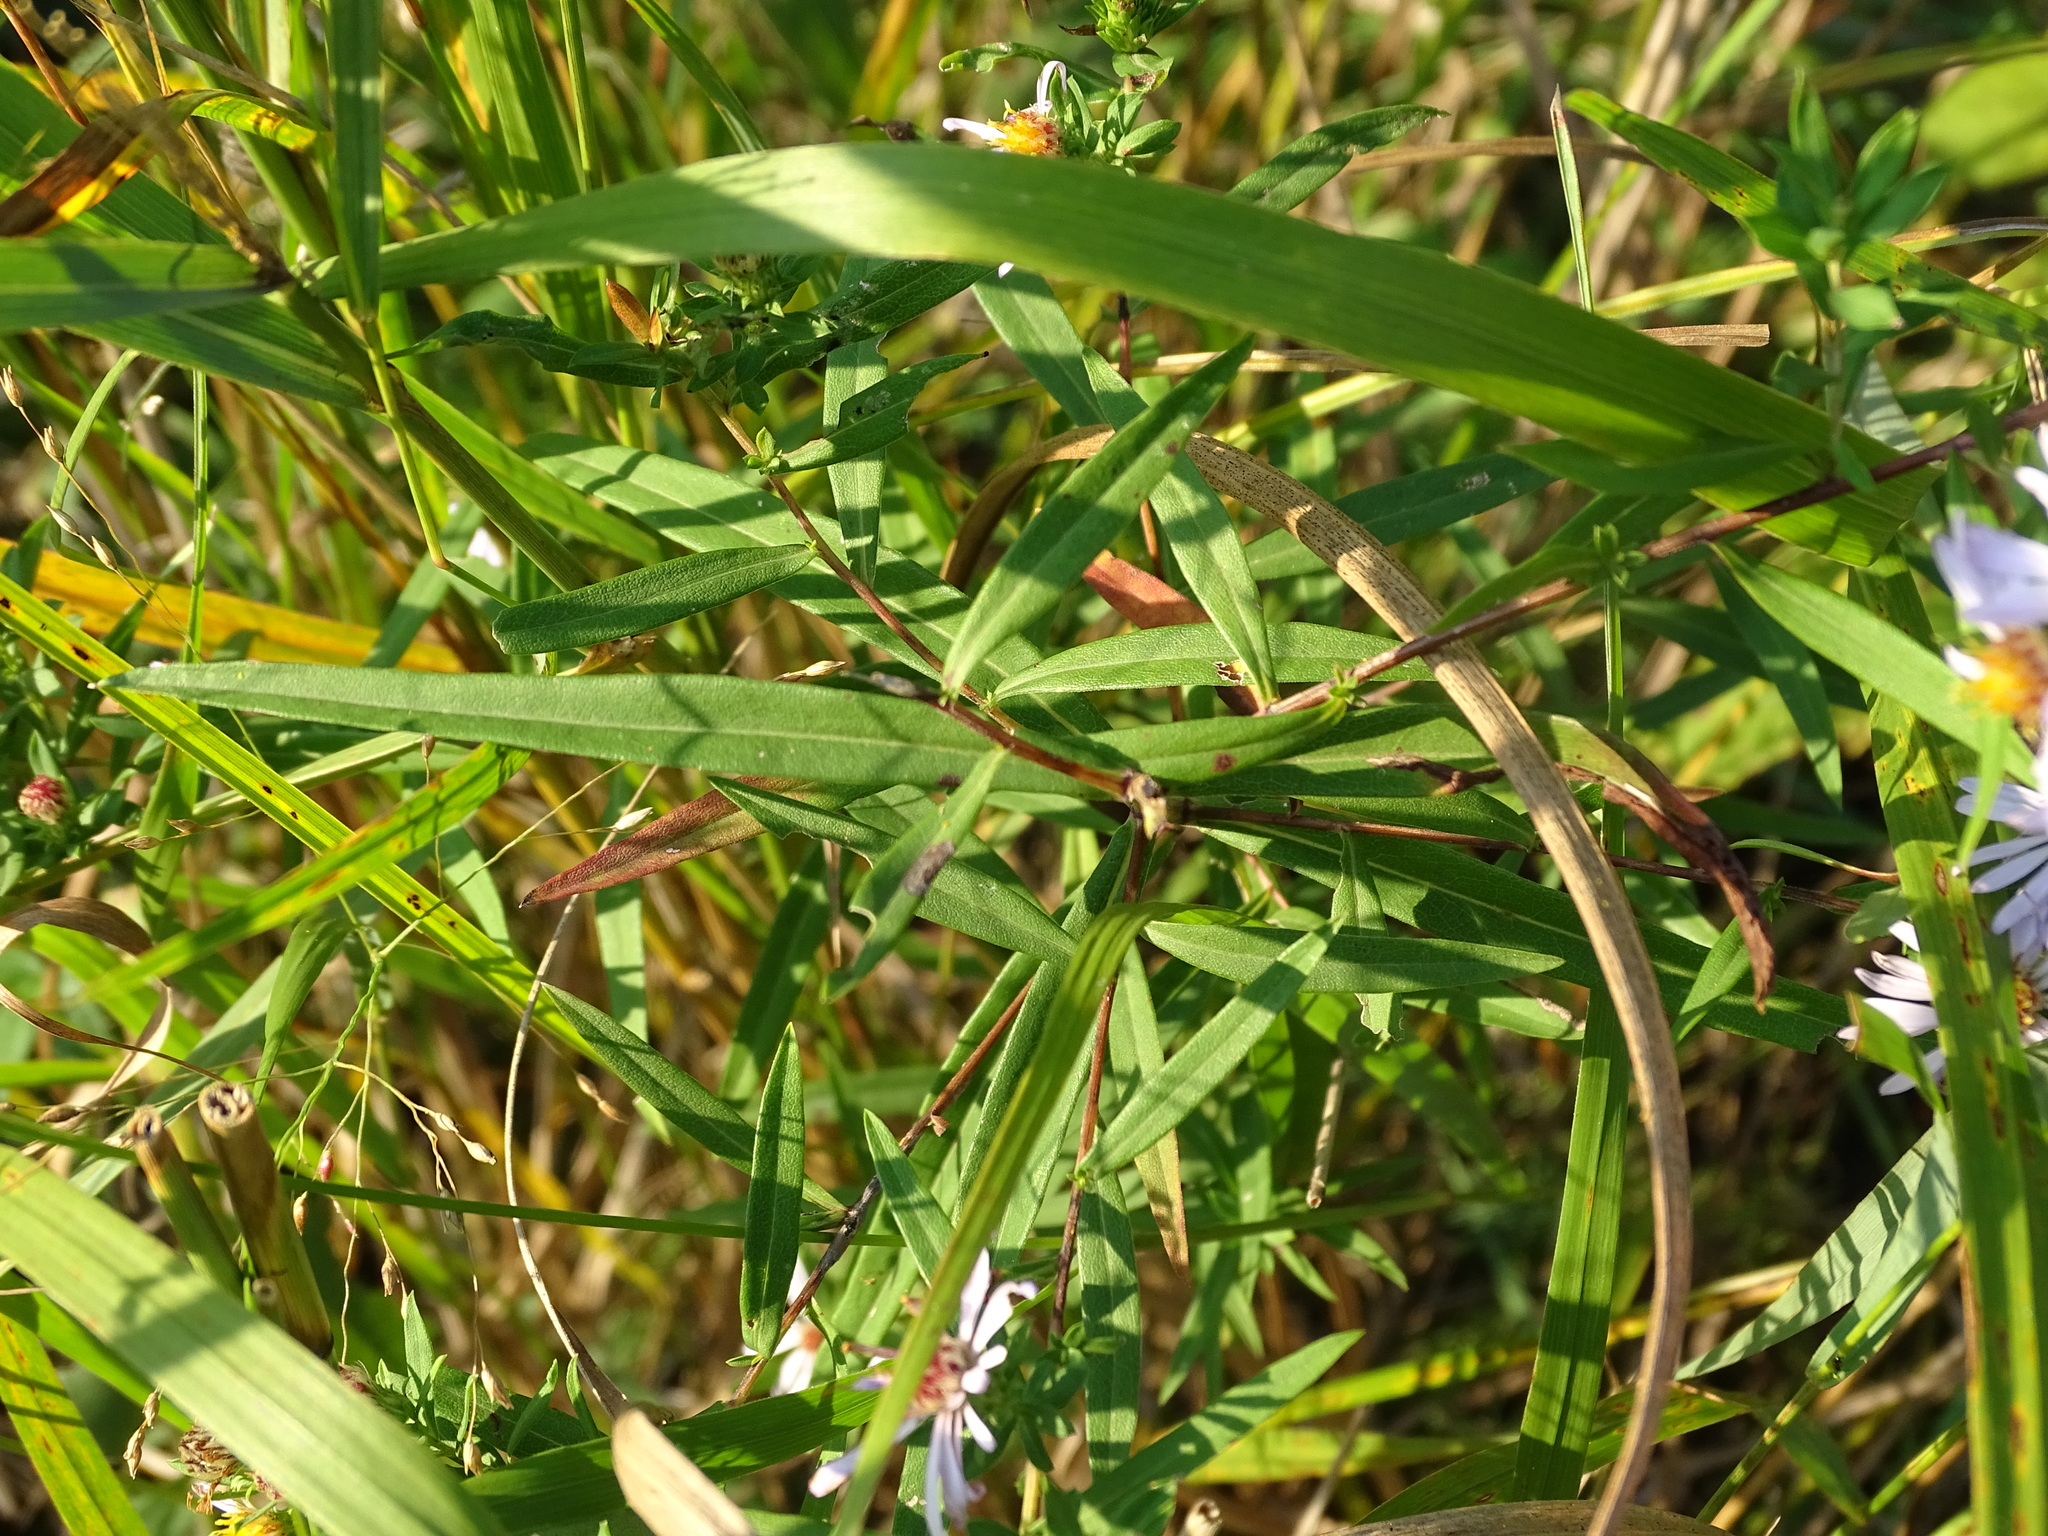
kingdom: Plantae
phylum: Tracheophyta
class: Magnoliopsida
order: Asterales
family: Asteraceae
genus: Symphyotrichum
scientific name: Symphyotrichum praealtum
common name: Willow aster
